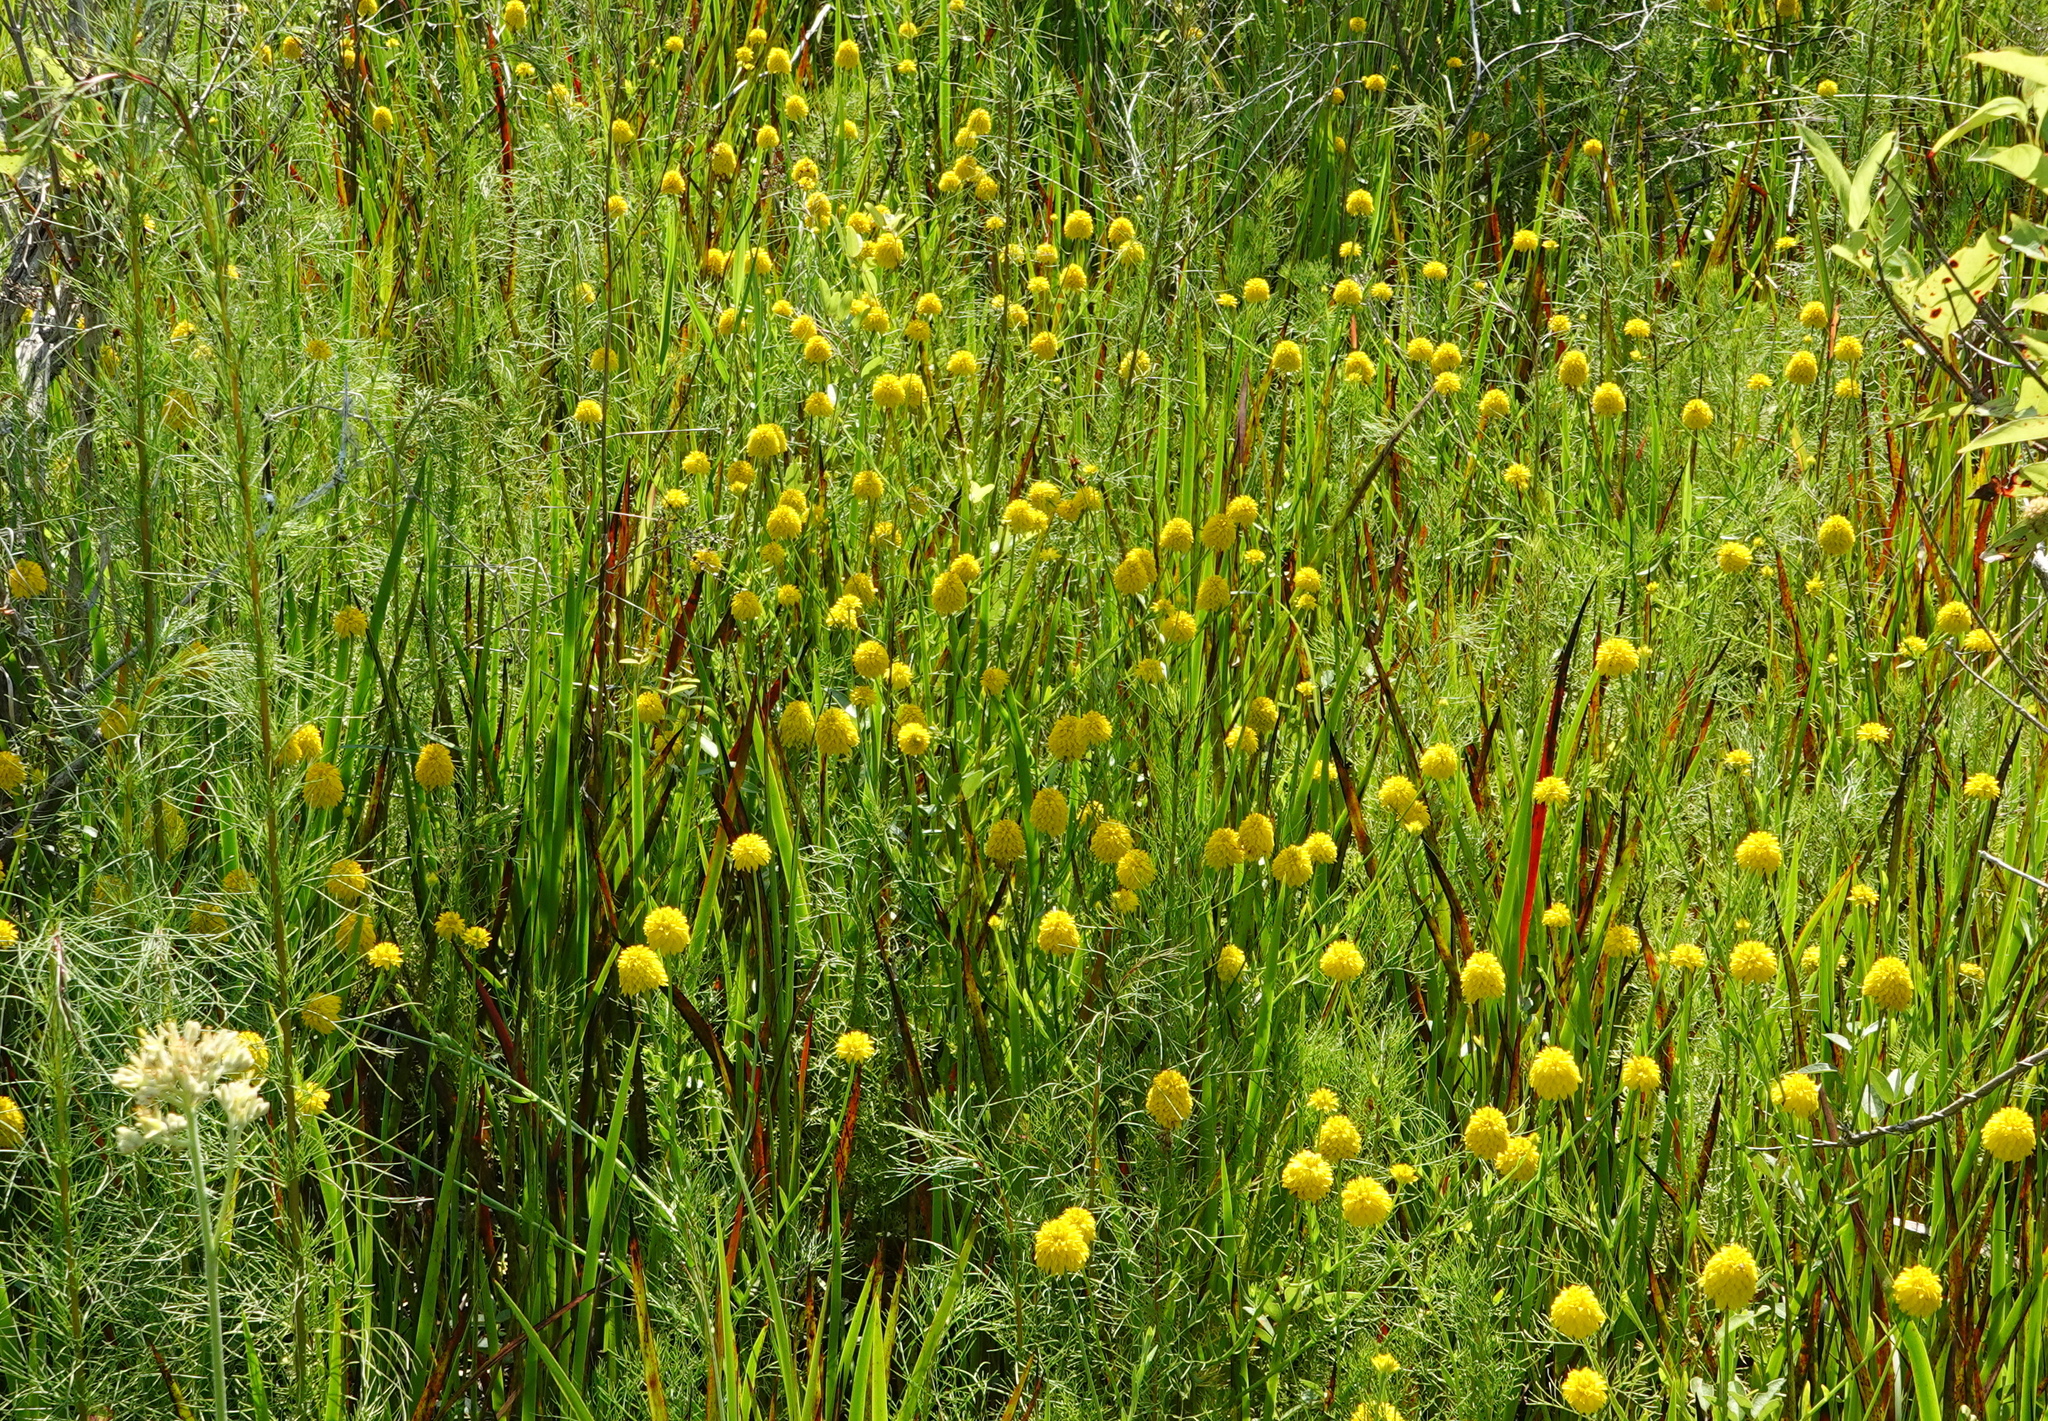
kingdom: Plantae
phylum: Tracheophyta
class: Magnoliopsida
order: Fabales
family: Polygalaceae
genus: Polygala
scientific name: Polygala rugelii
